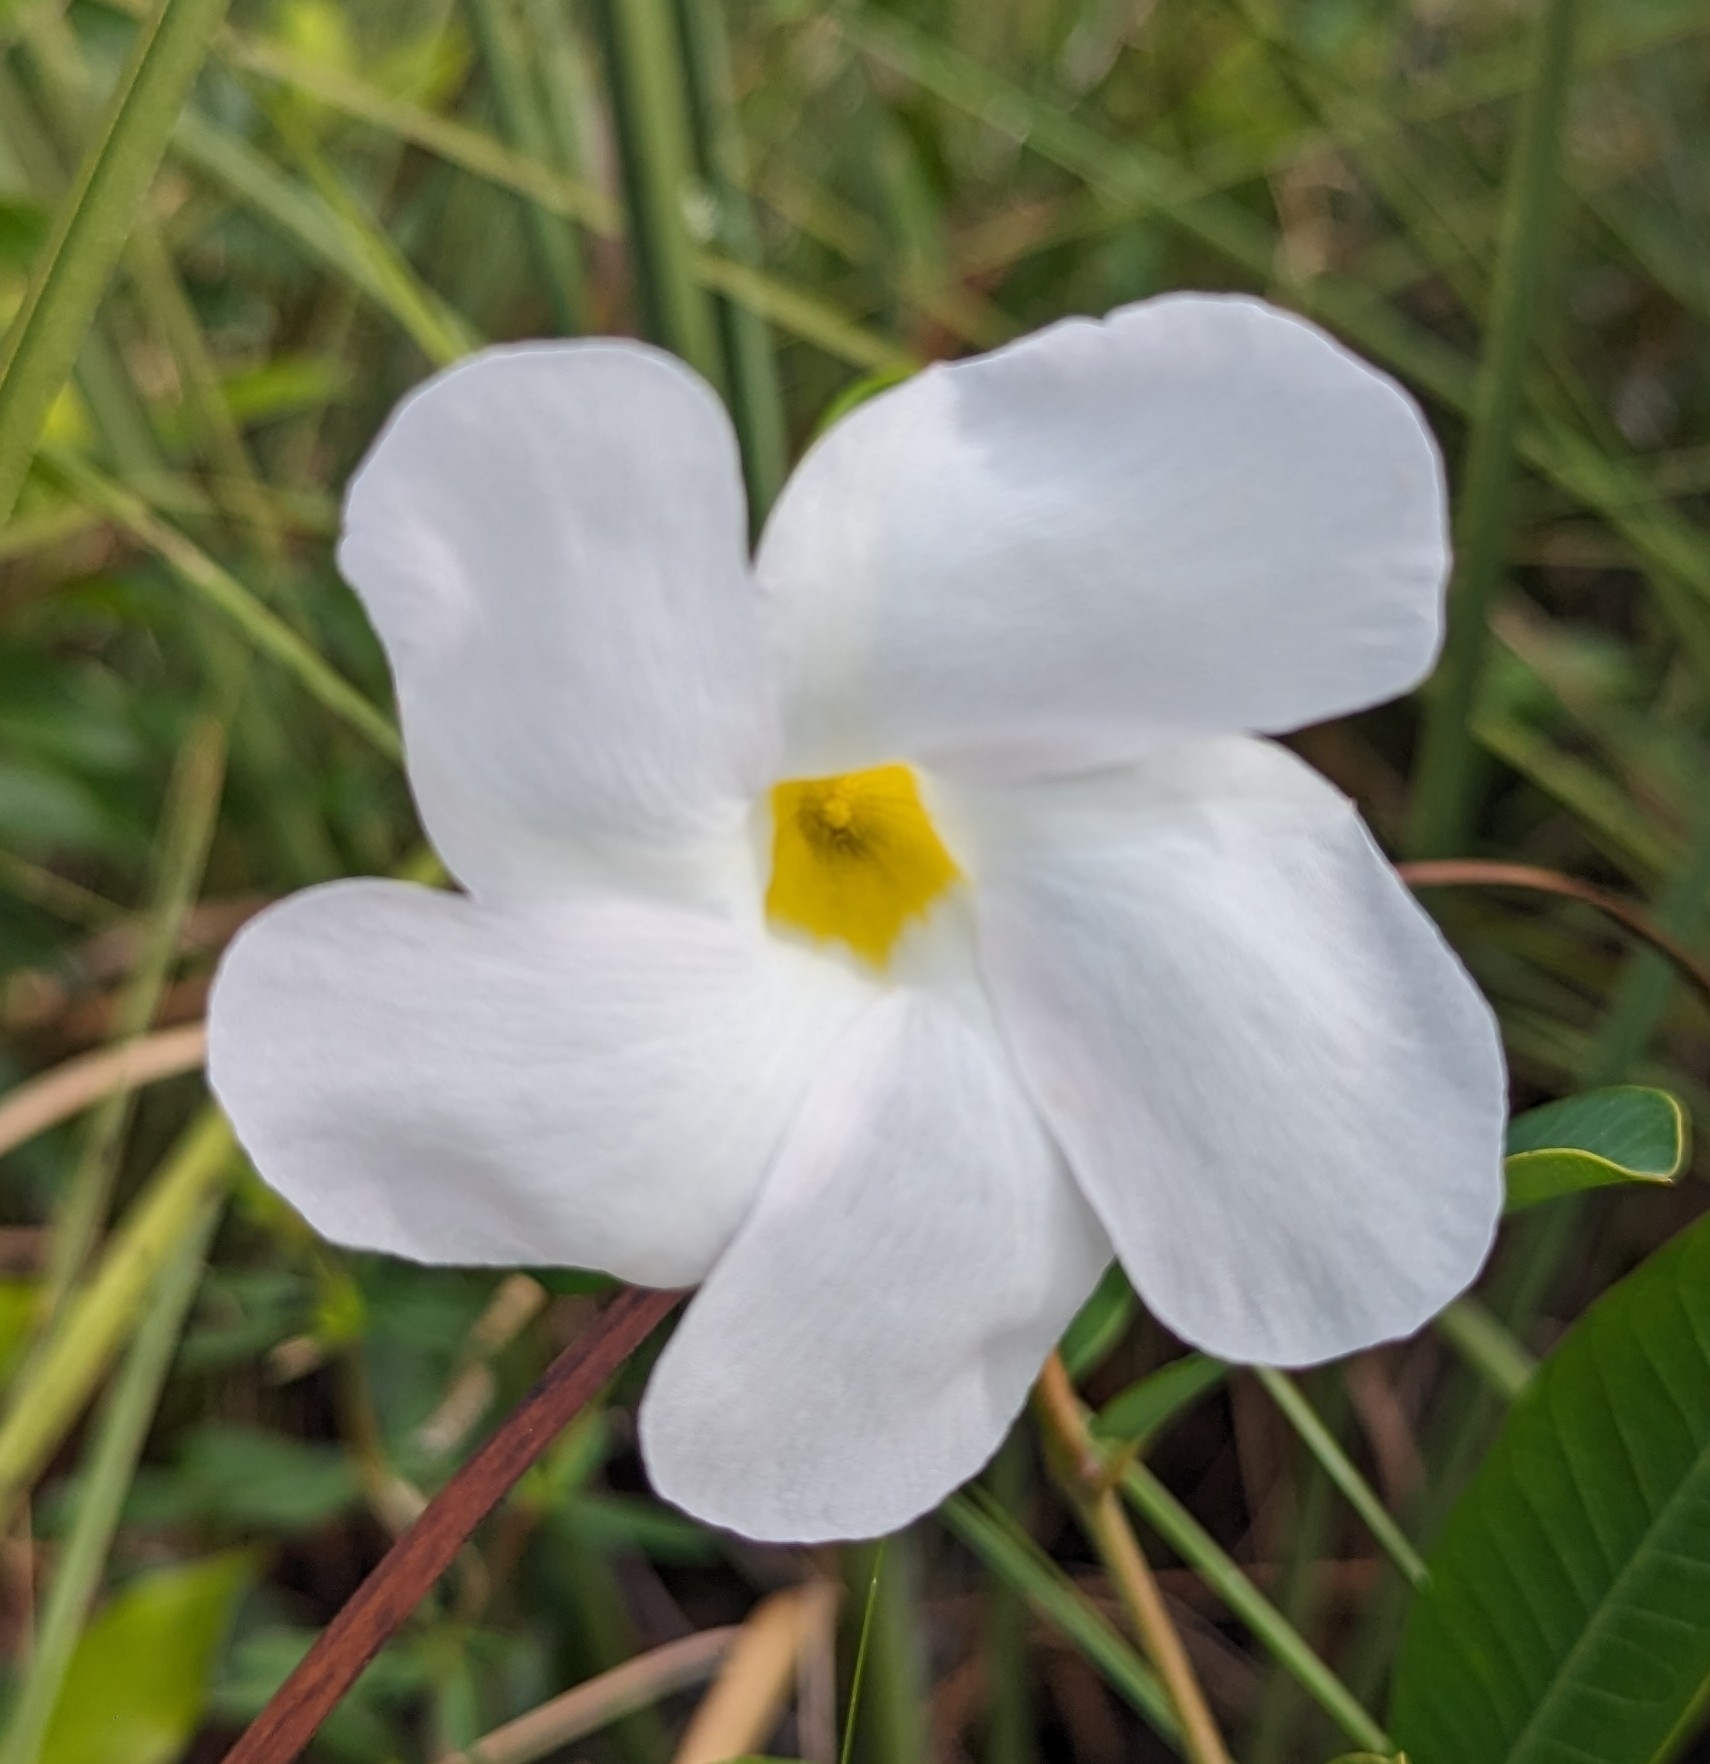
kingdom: Plantae
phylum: Tracheophyta
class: Magnoliopsida
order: Gentianales
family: Apocynaceae
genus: Rhabdadenia
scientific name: Rhabdadenia biflora
